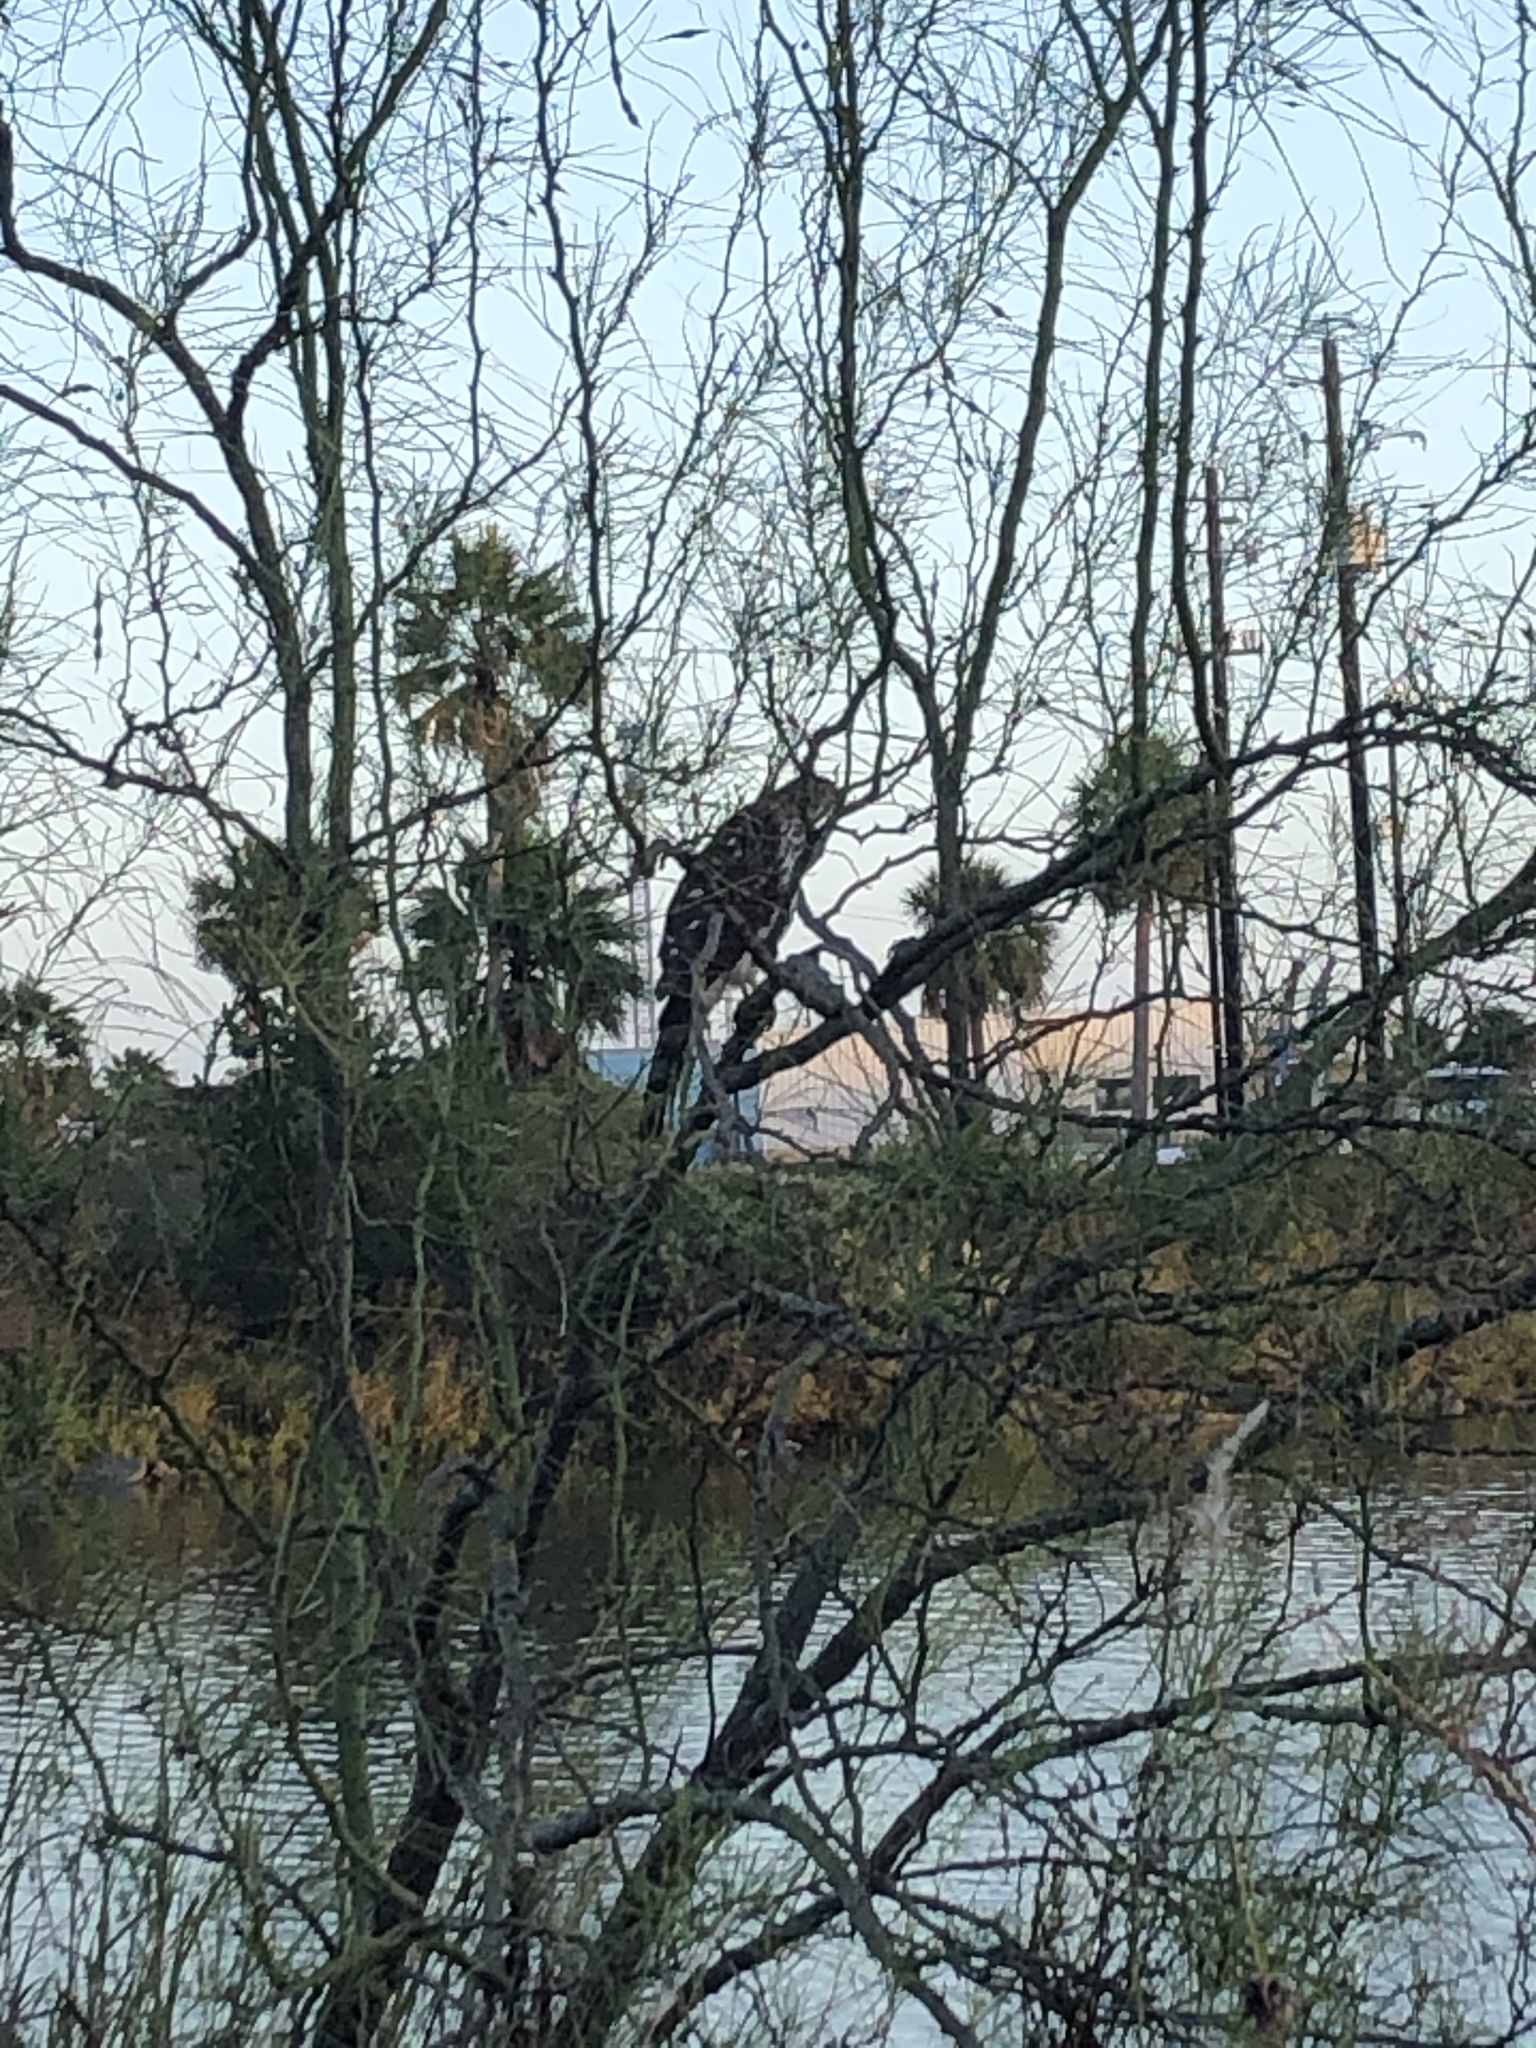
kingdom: Animalia
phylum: Chordata
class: Aves
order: Accipitriformes
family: Accipitridae
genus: Accipiter
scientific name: Accipiter cooperii
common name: Cooper's hawk
